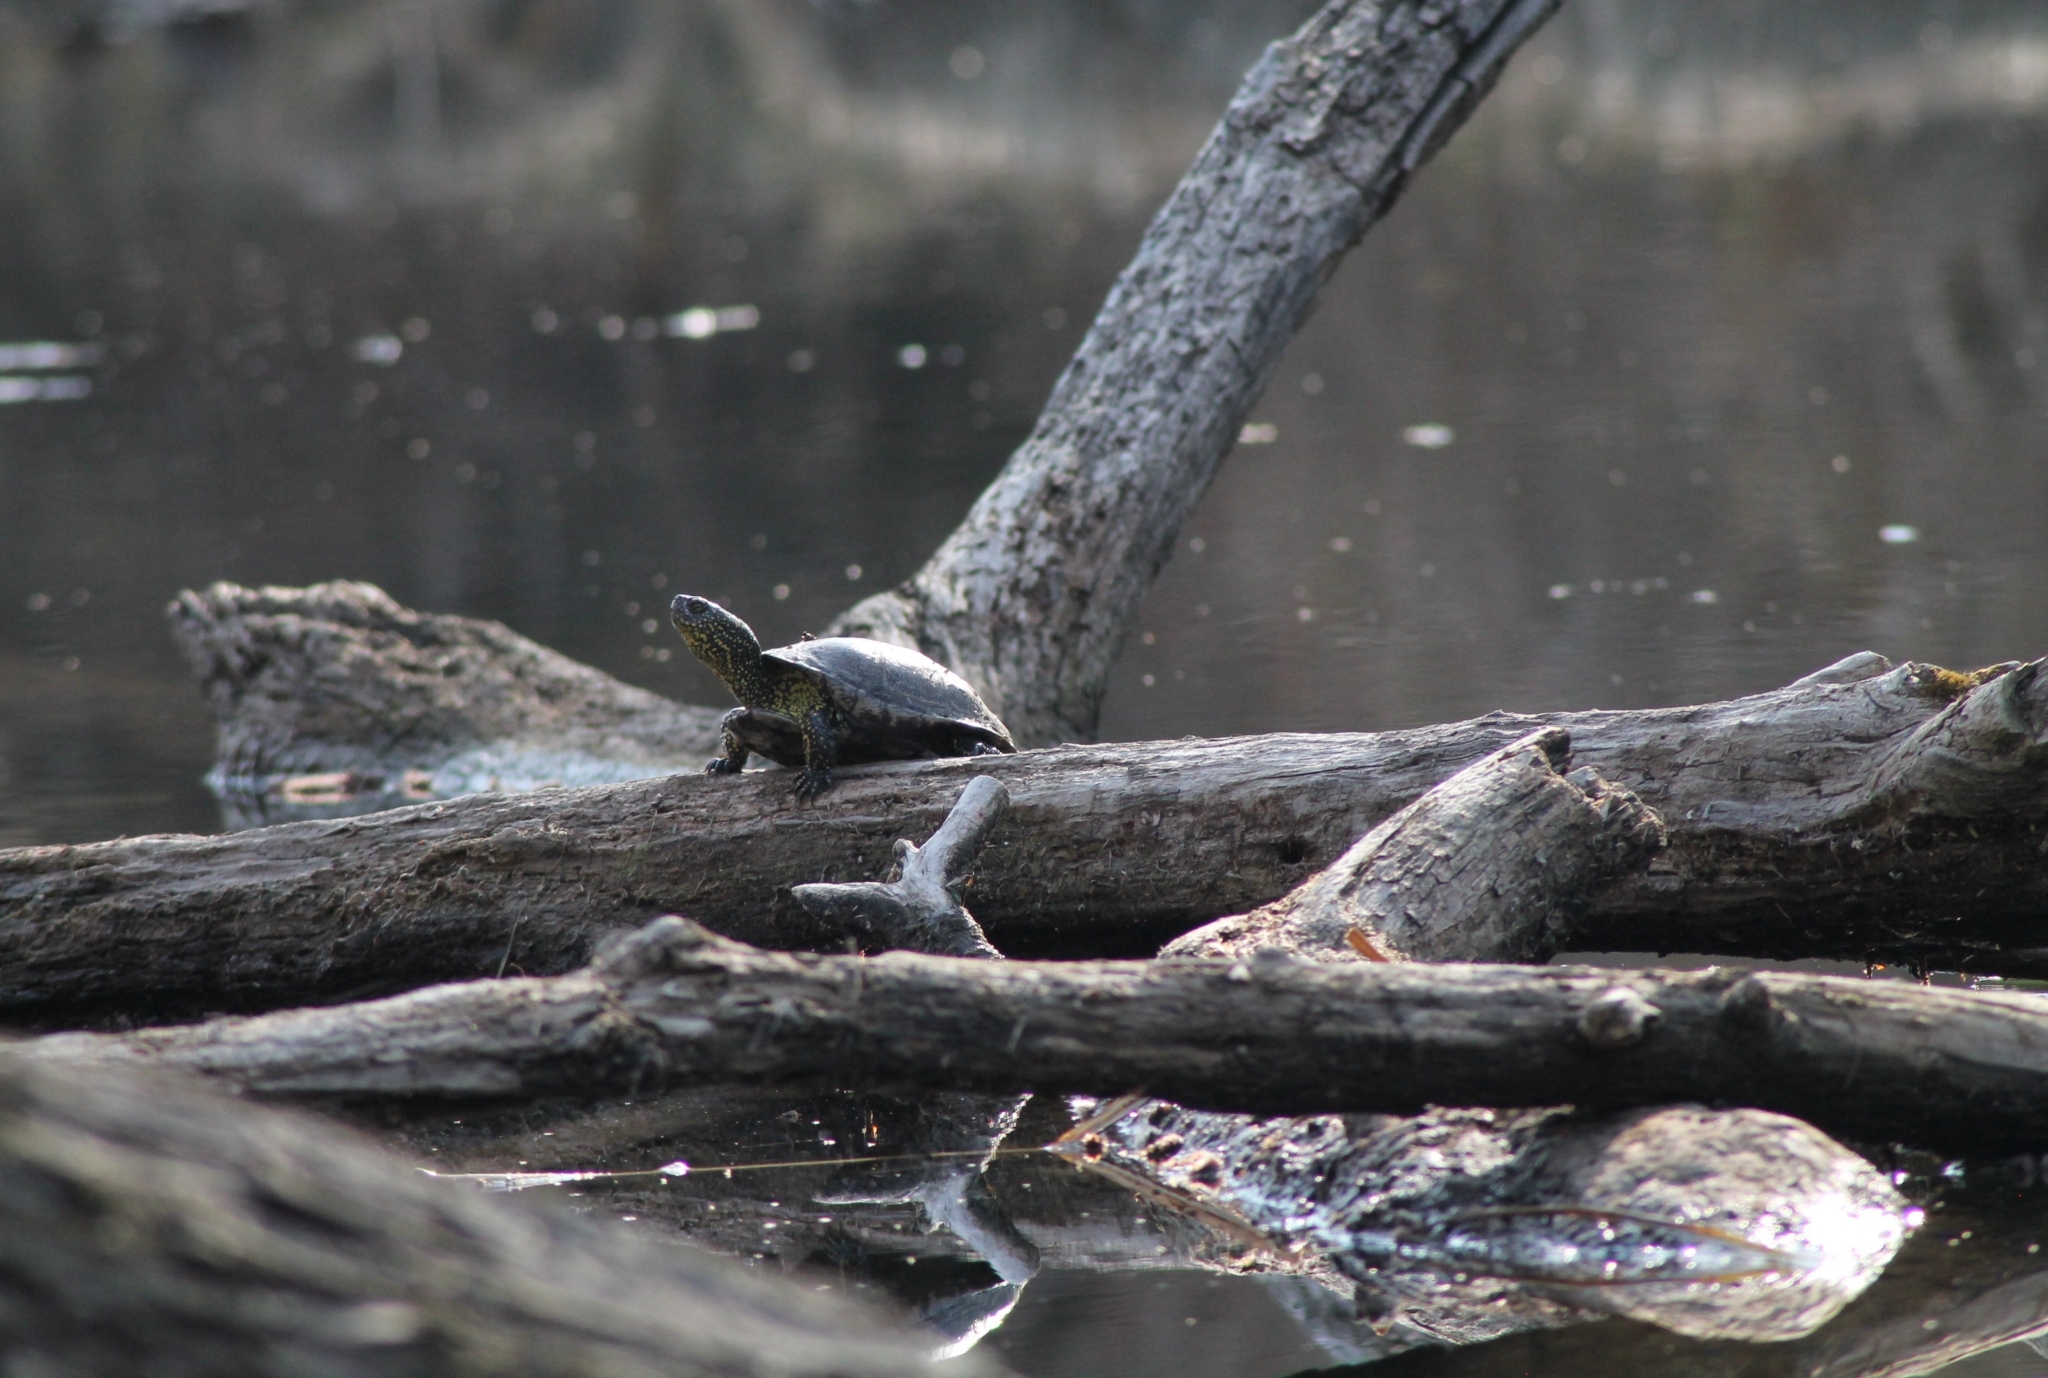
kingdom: Animalia
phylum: Chordata
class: Testudines
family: Emydidae
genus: Emys
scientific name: Emys orbicularis
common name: European pond turtle
